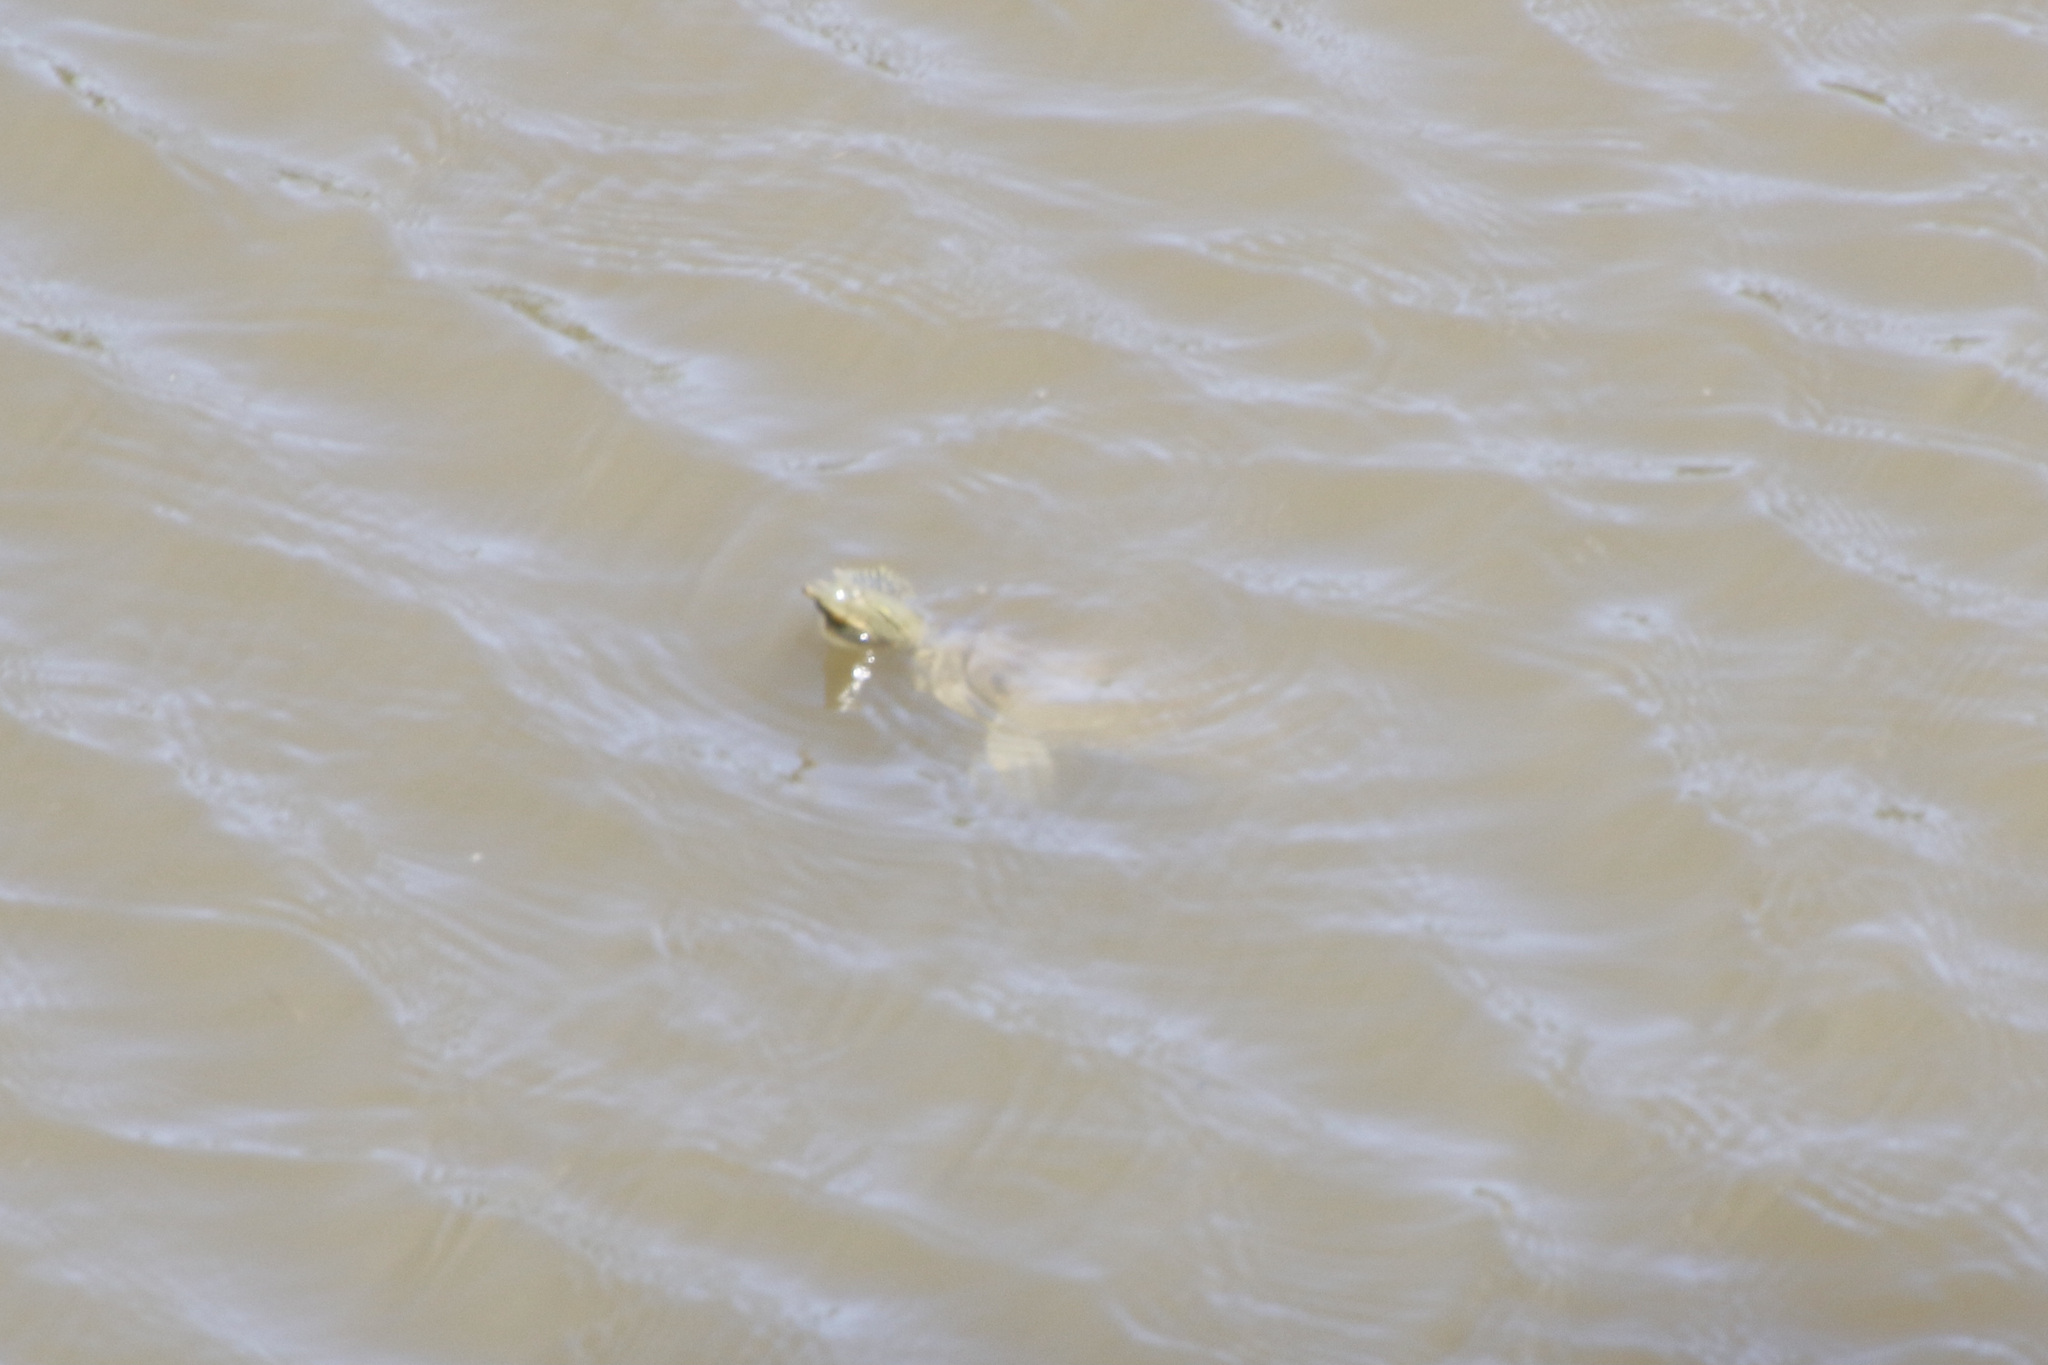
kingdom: Animalia
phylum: Chordata
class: Testudines
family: Trionychidae
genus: Apalone
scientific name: Apalone spinifera
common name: Spiny softshell turtle
